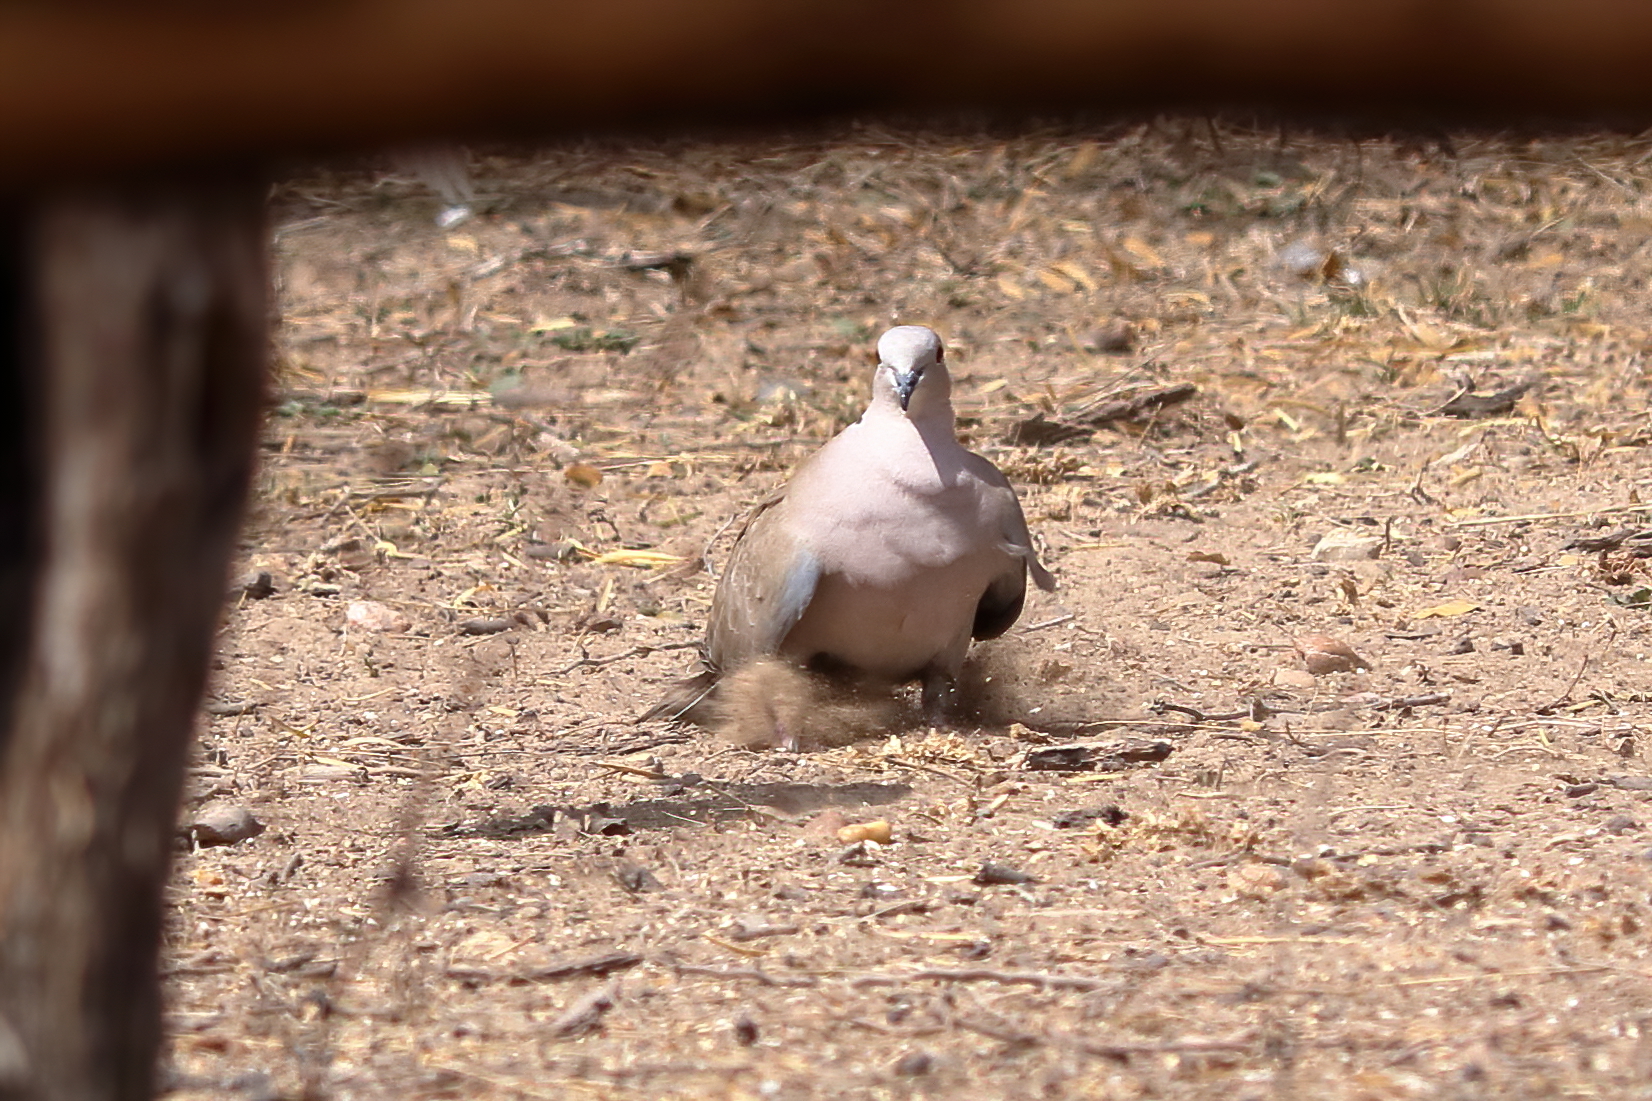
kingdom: Animalia
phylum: Chordata
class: Aves
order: Columbiformes
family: Columbidae
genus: Leptotila
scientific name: Leptotila verreauxi
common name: White-tipped dove
